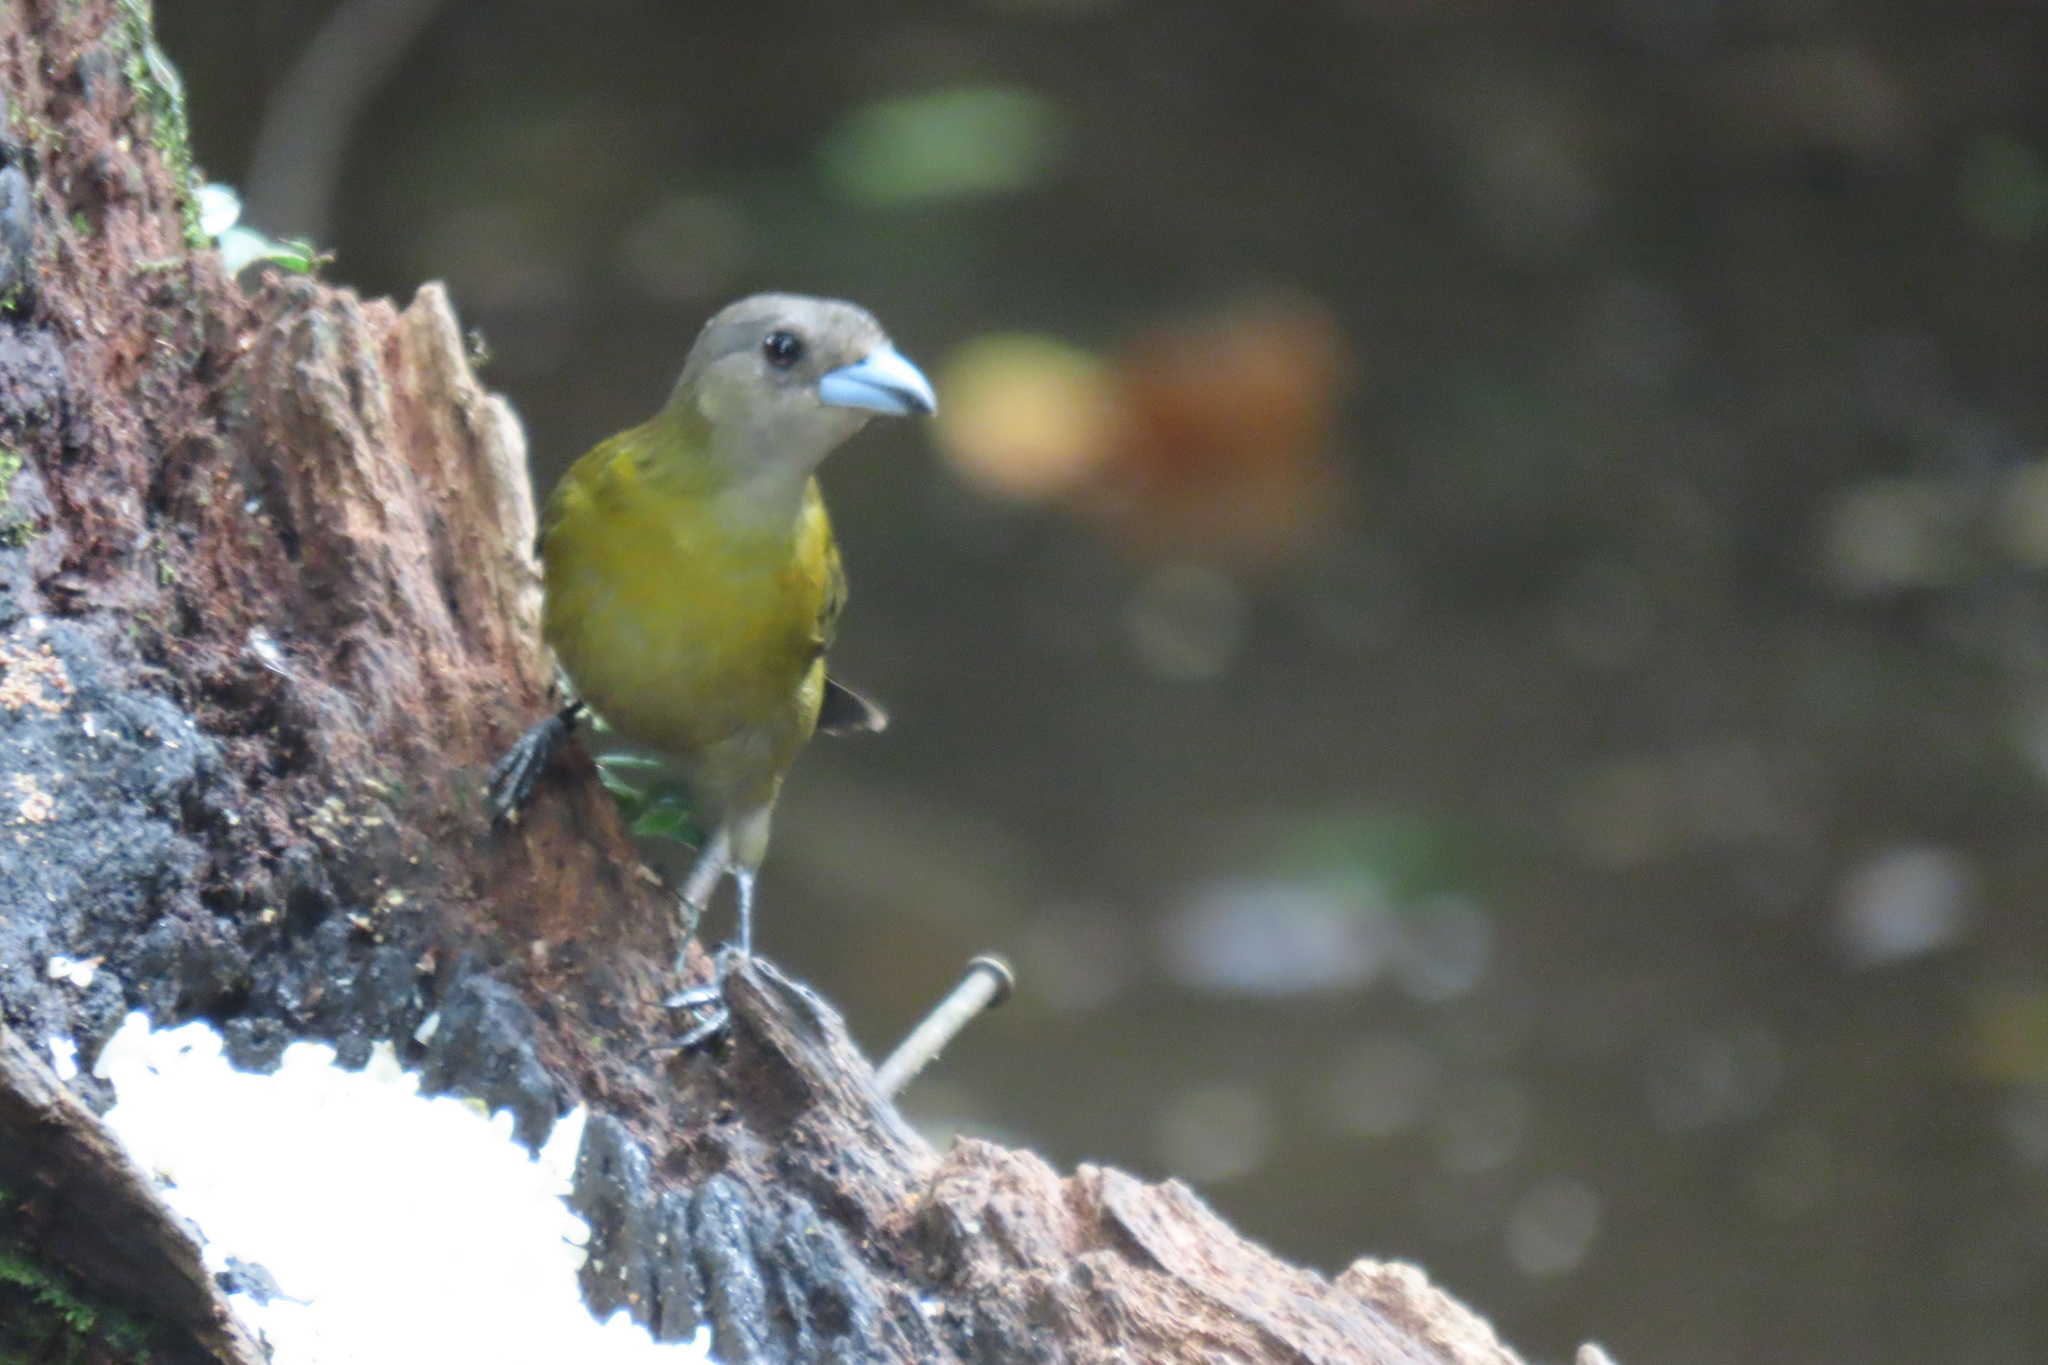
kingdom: Animalia
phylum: Chordata
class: Aves
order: Passeriformes
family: Thraupidae
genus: Ramphocelus
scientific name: Ramphocelus passerinii
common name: Passerini's tanager
